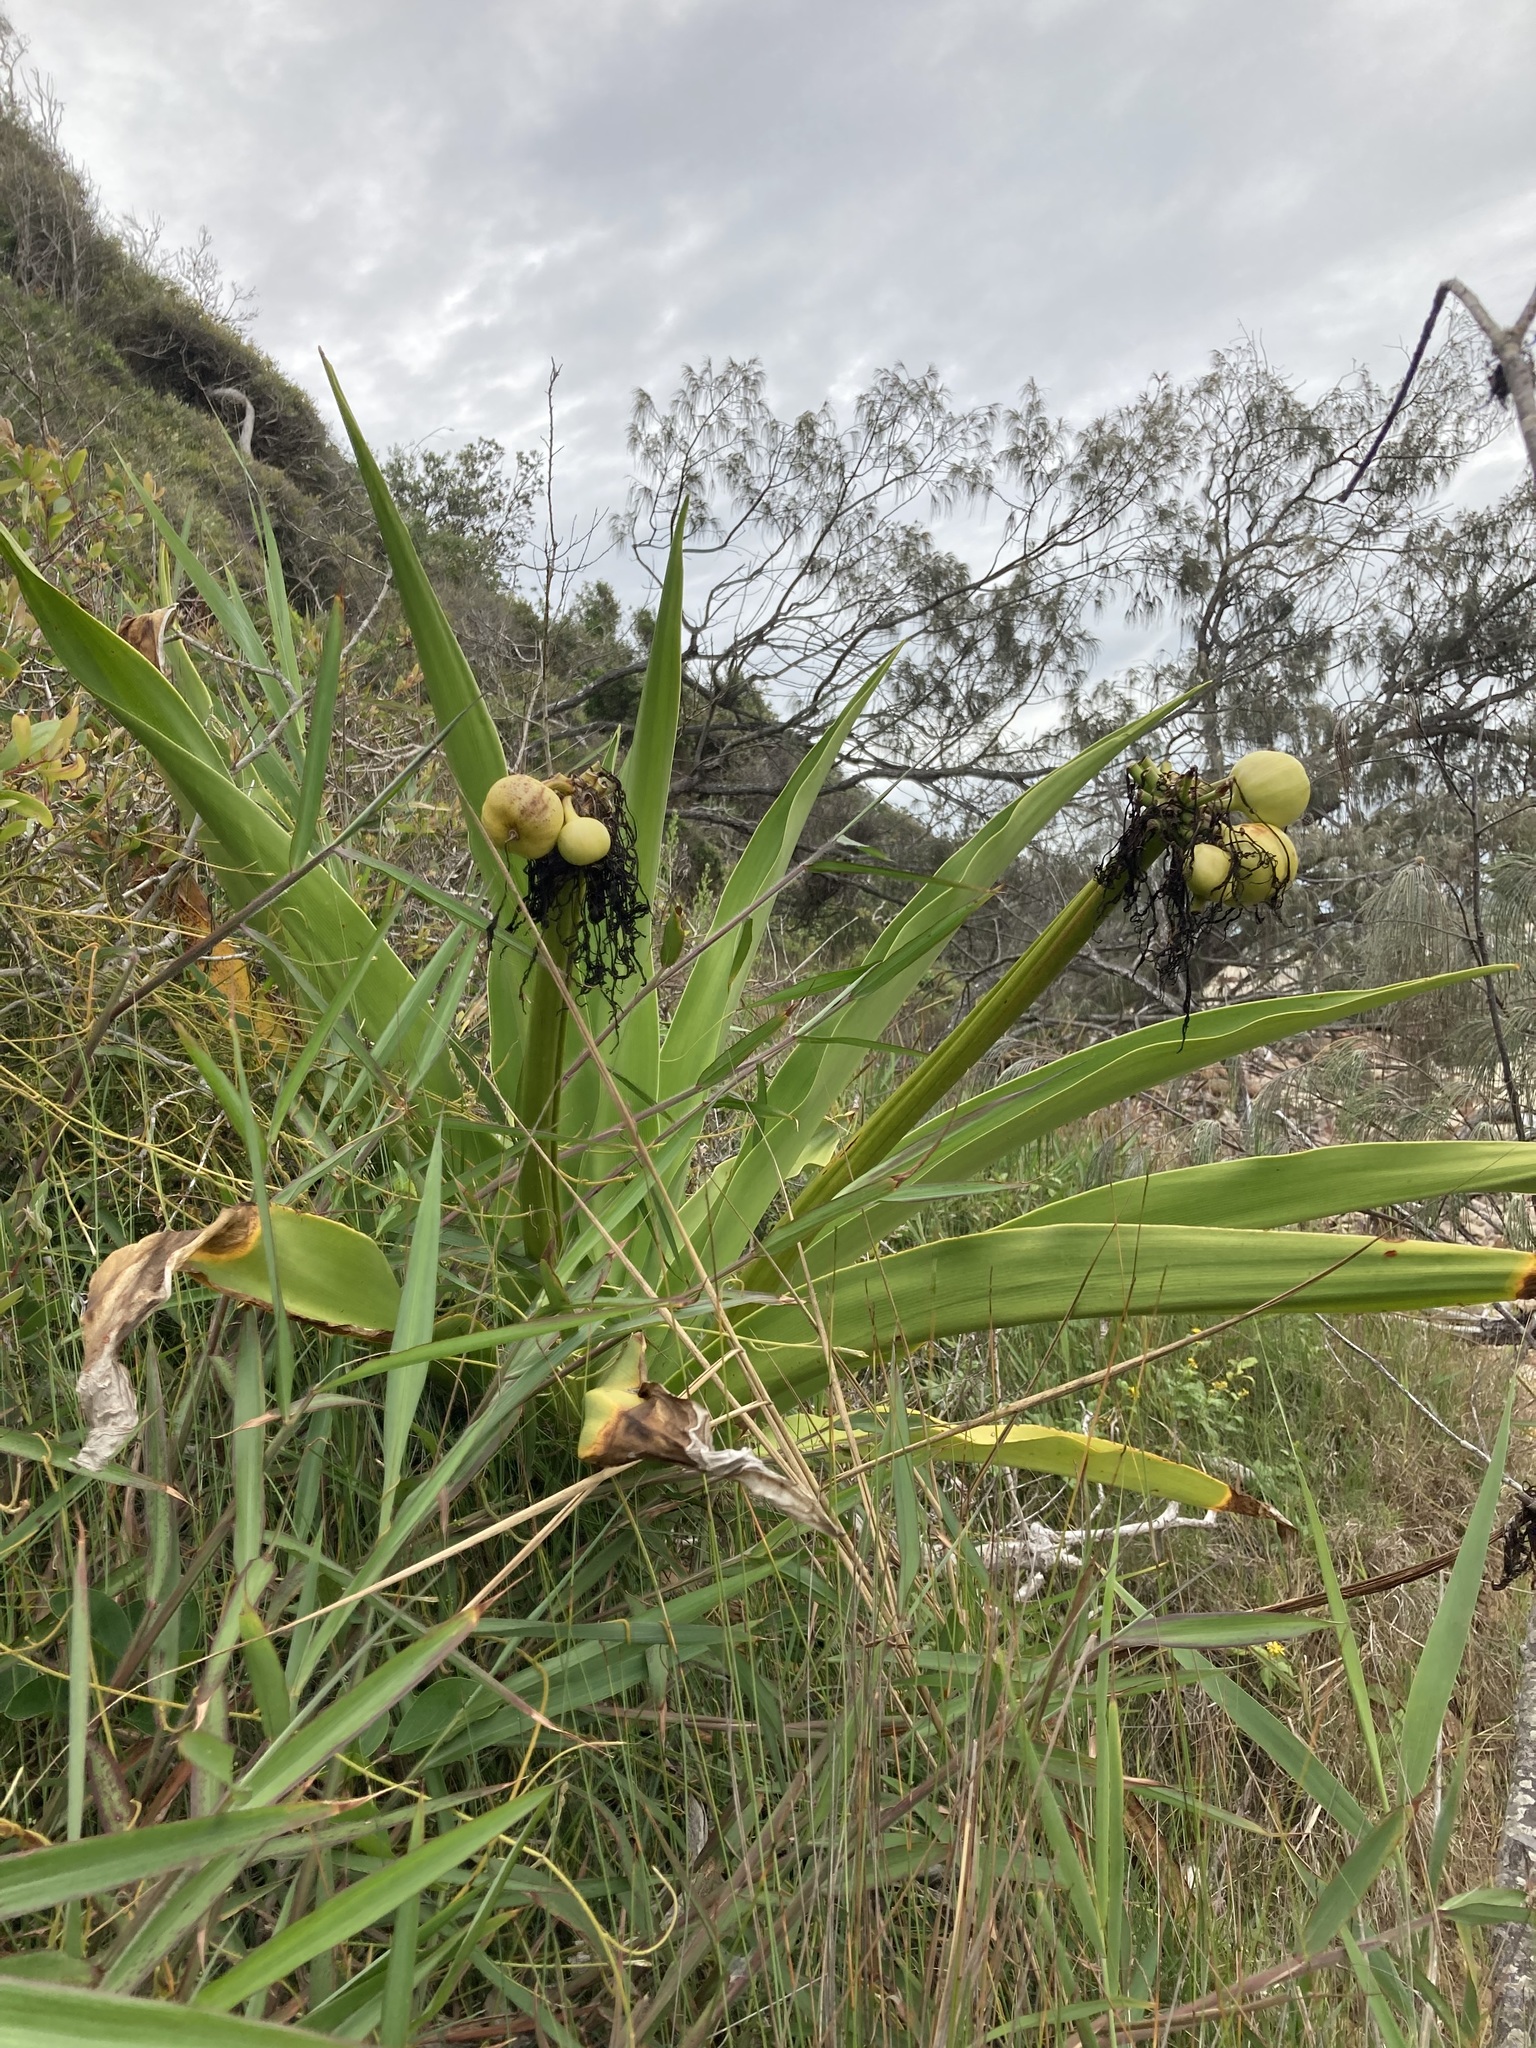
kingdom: Plantae
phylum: Tracheophyta
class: Liliopsida
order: Asparagales
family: Amaryllidaceae
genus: Crinum
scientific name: Crinum pedunculatum
